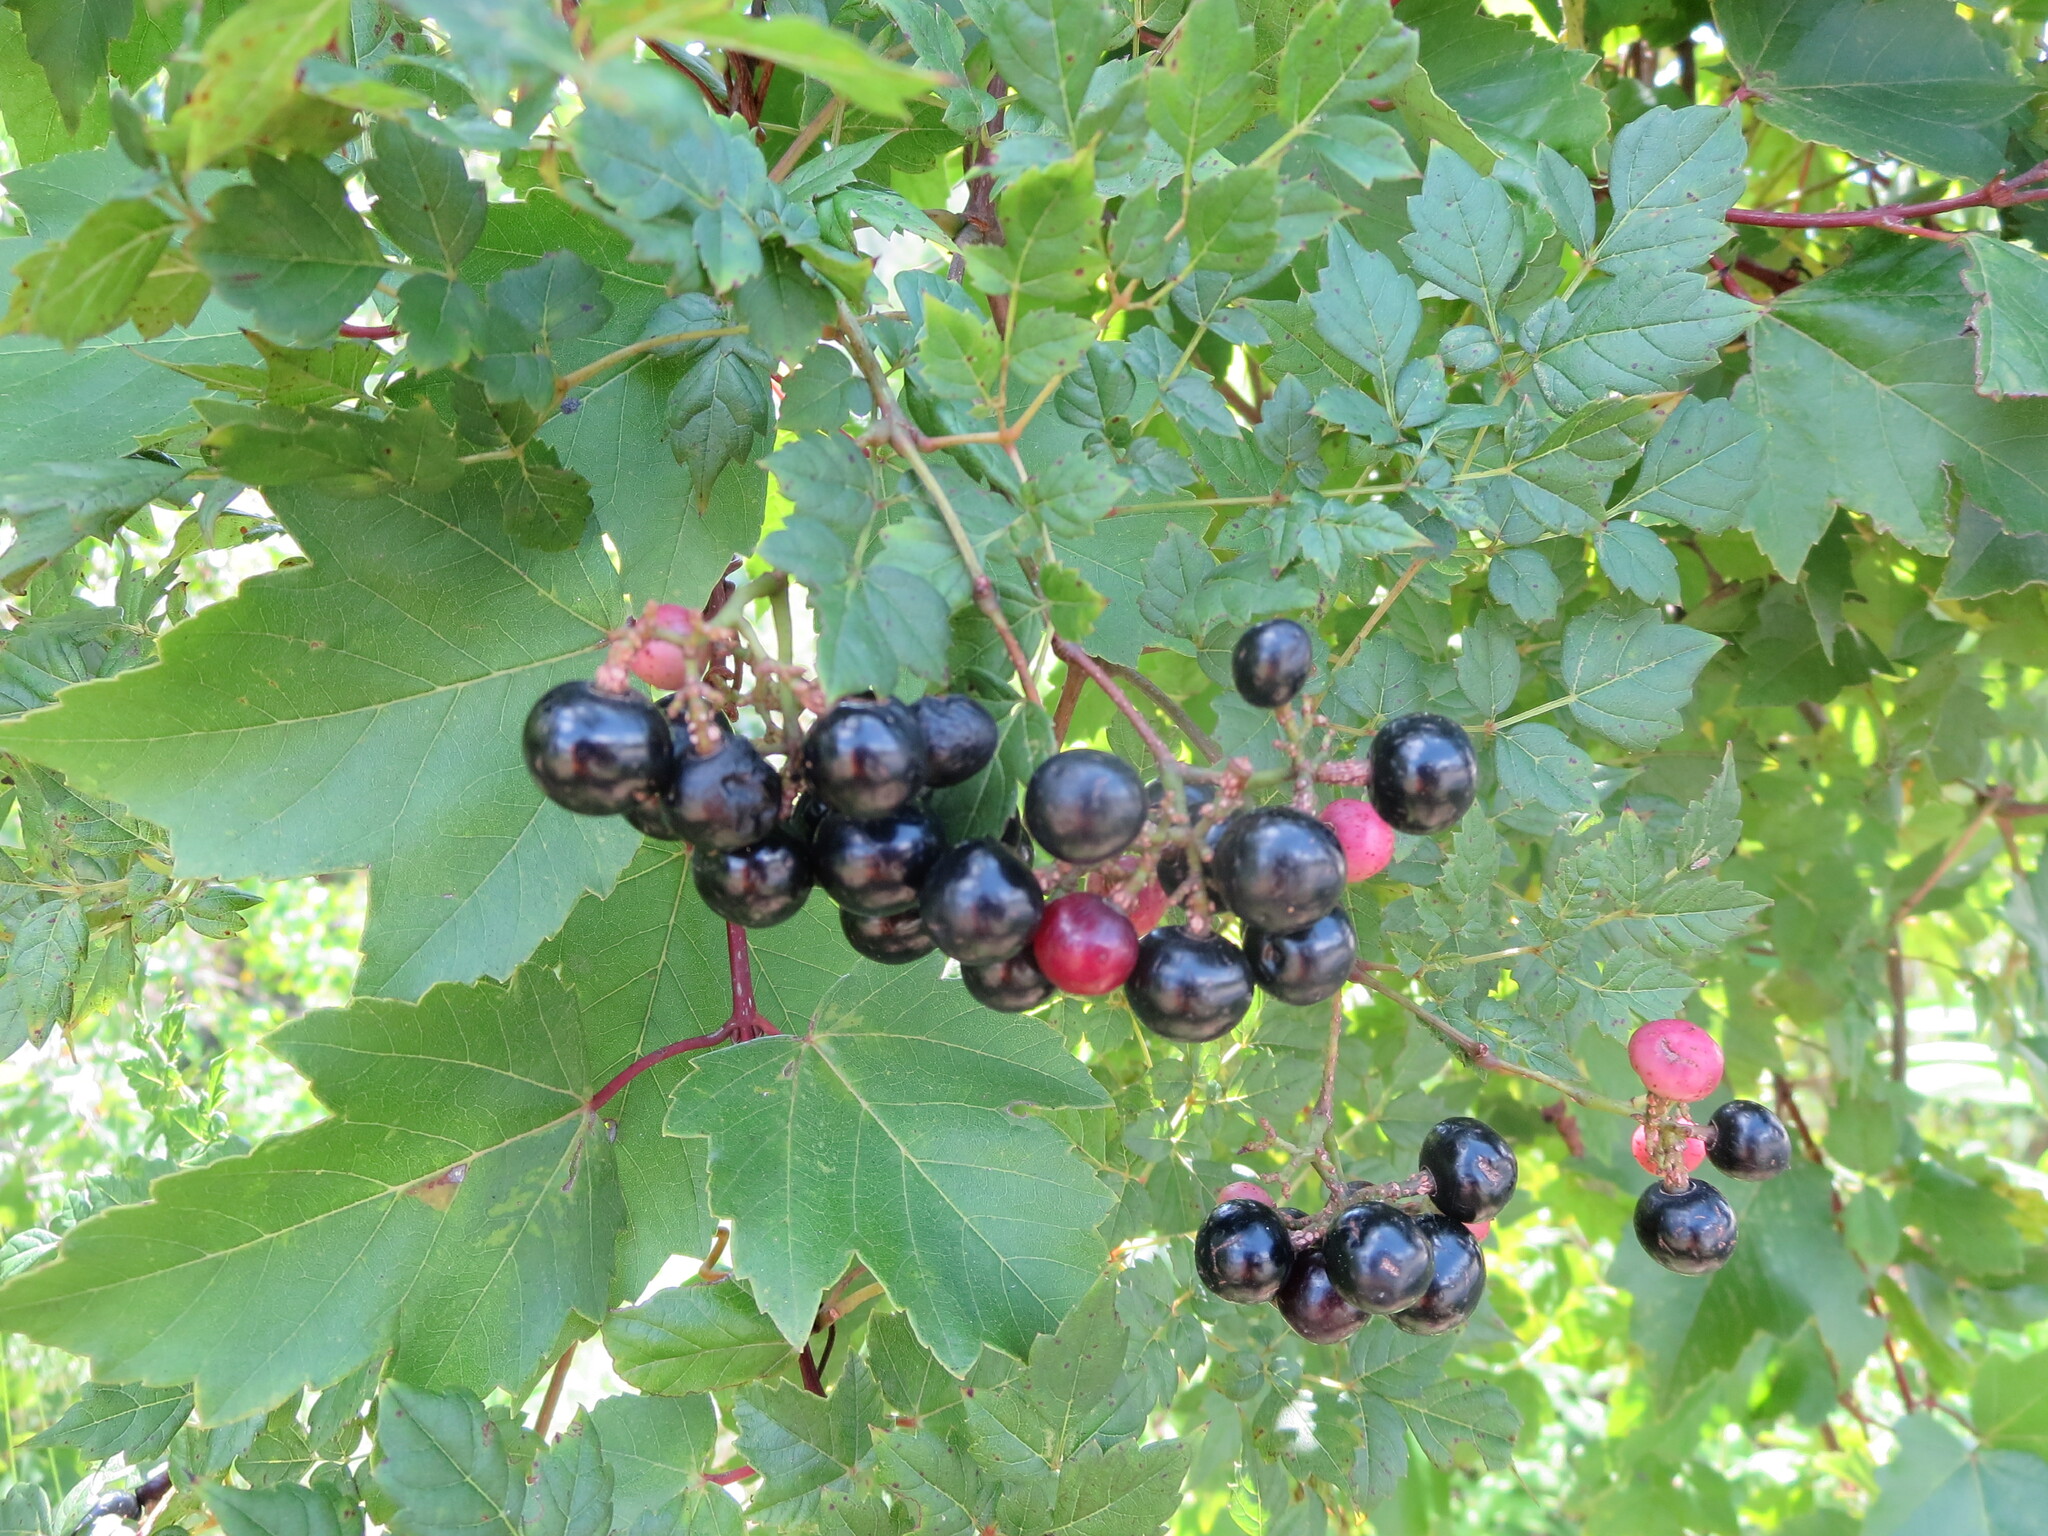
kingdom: Plantae
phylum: Tracheophyta
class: Magnoliopsida
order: Vitales
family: Vitaceae
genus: Nekemias
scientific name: Nekemias arborea
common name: Peppervine
